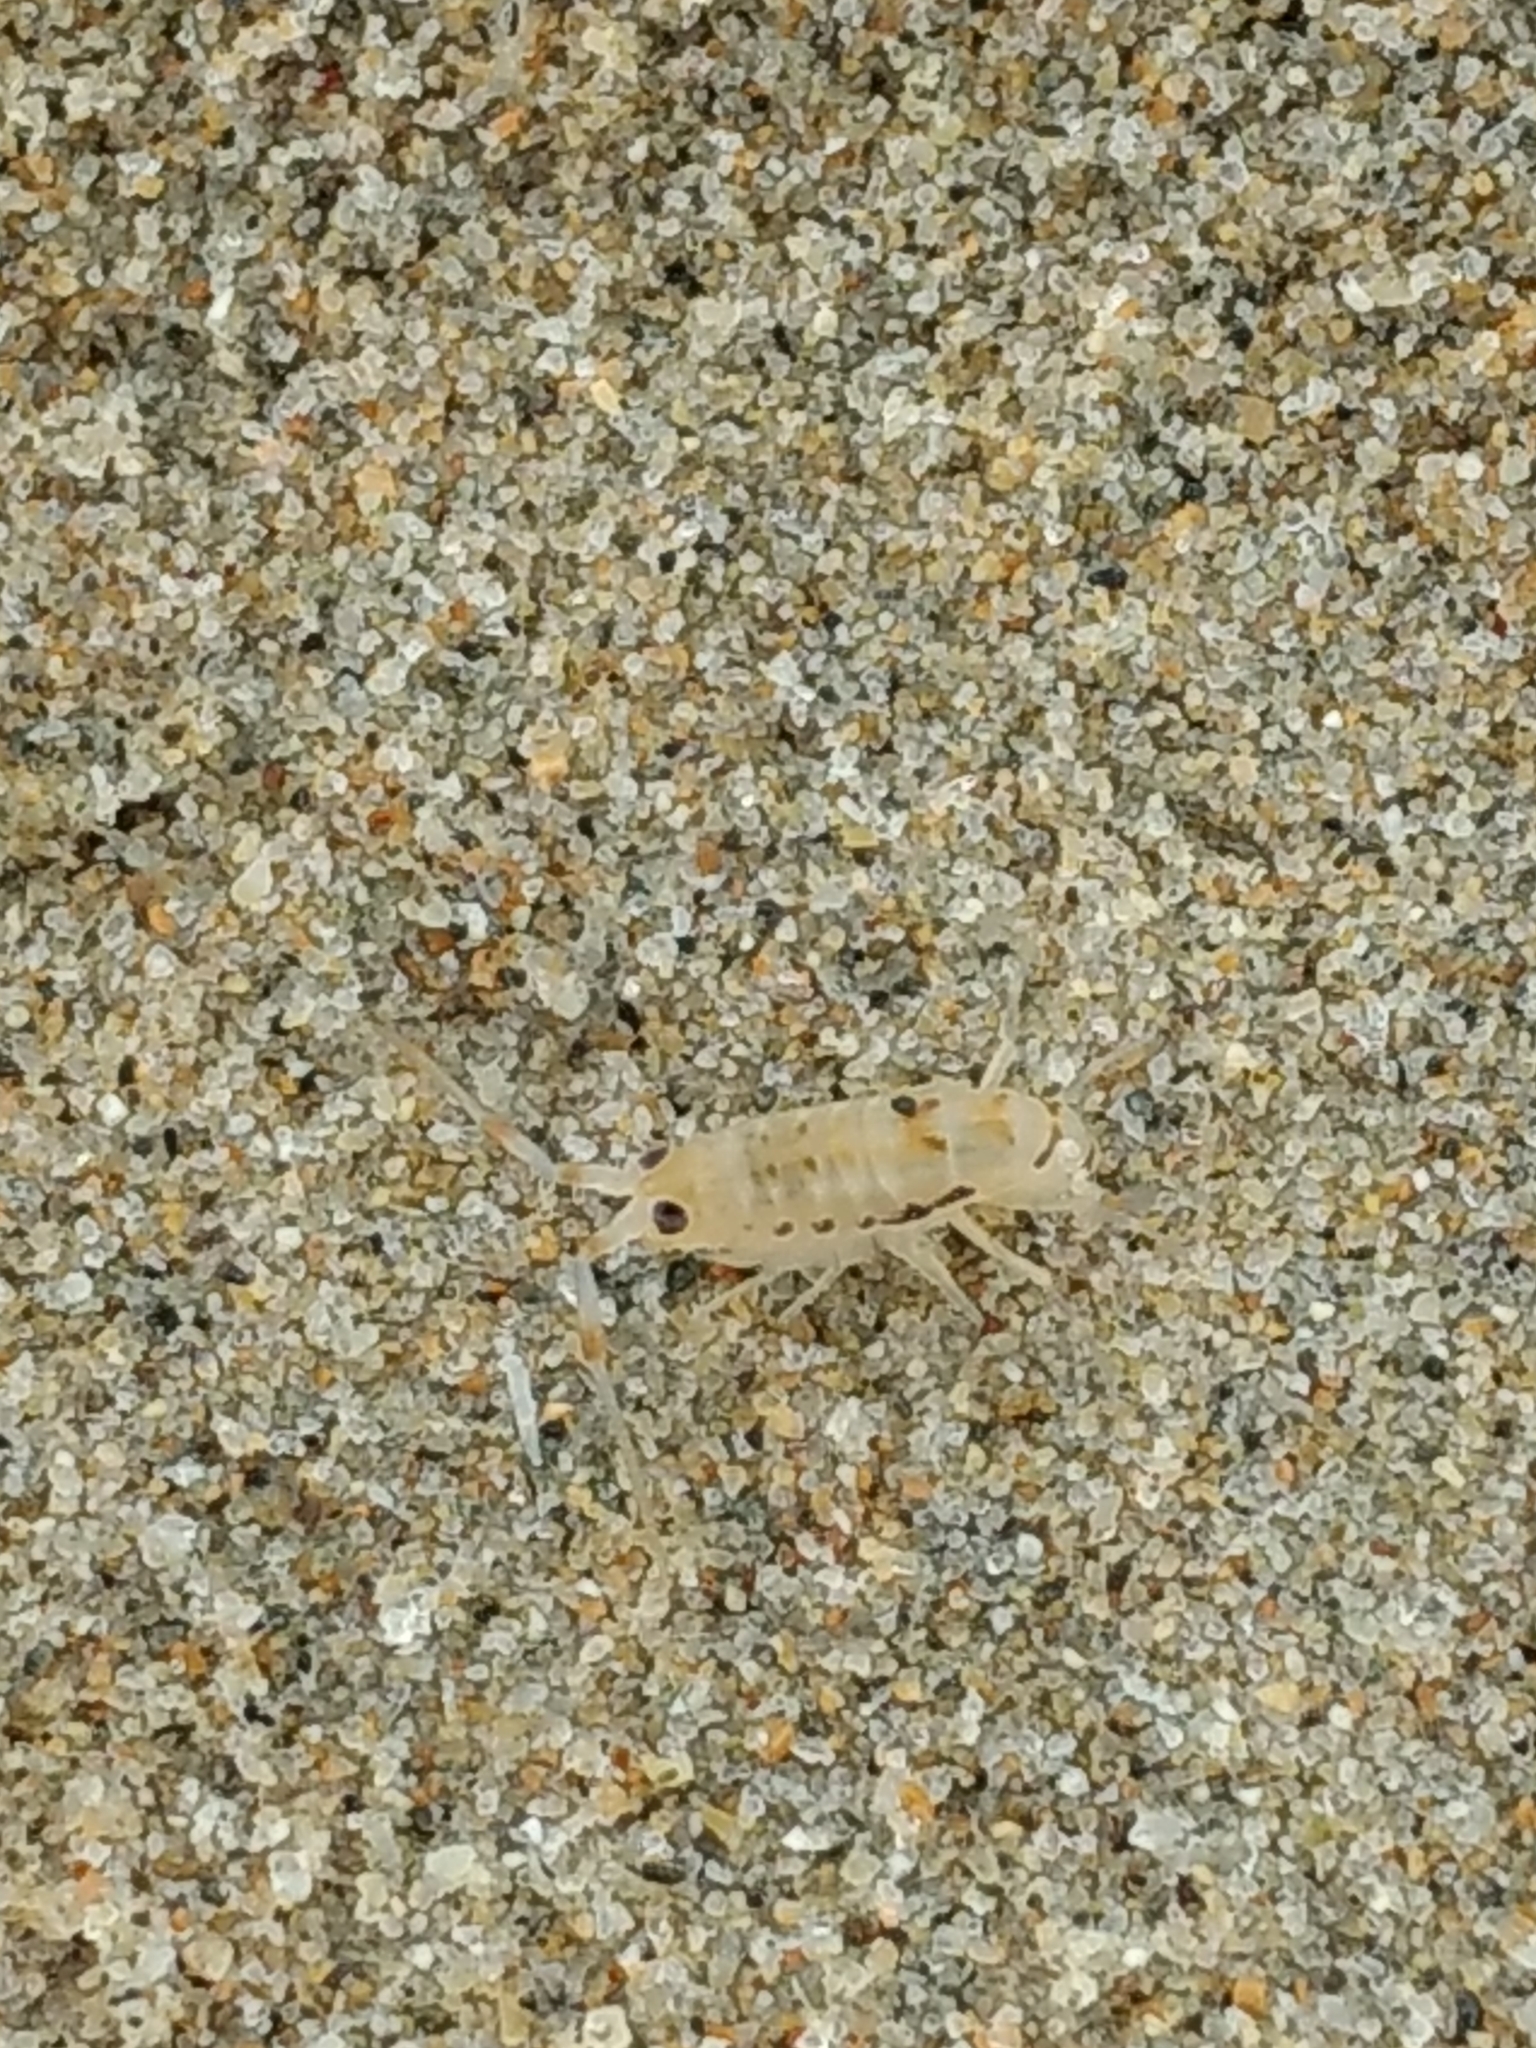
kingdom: Animalia
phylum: Arthropoda
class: Malacostraca
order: Amphipoda
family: Talitridae
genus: Megalorchestia
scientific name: Megalorchestia minor
